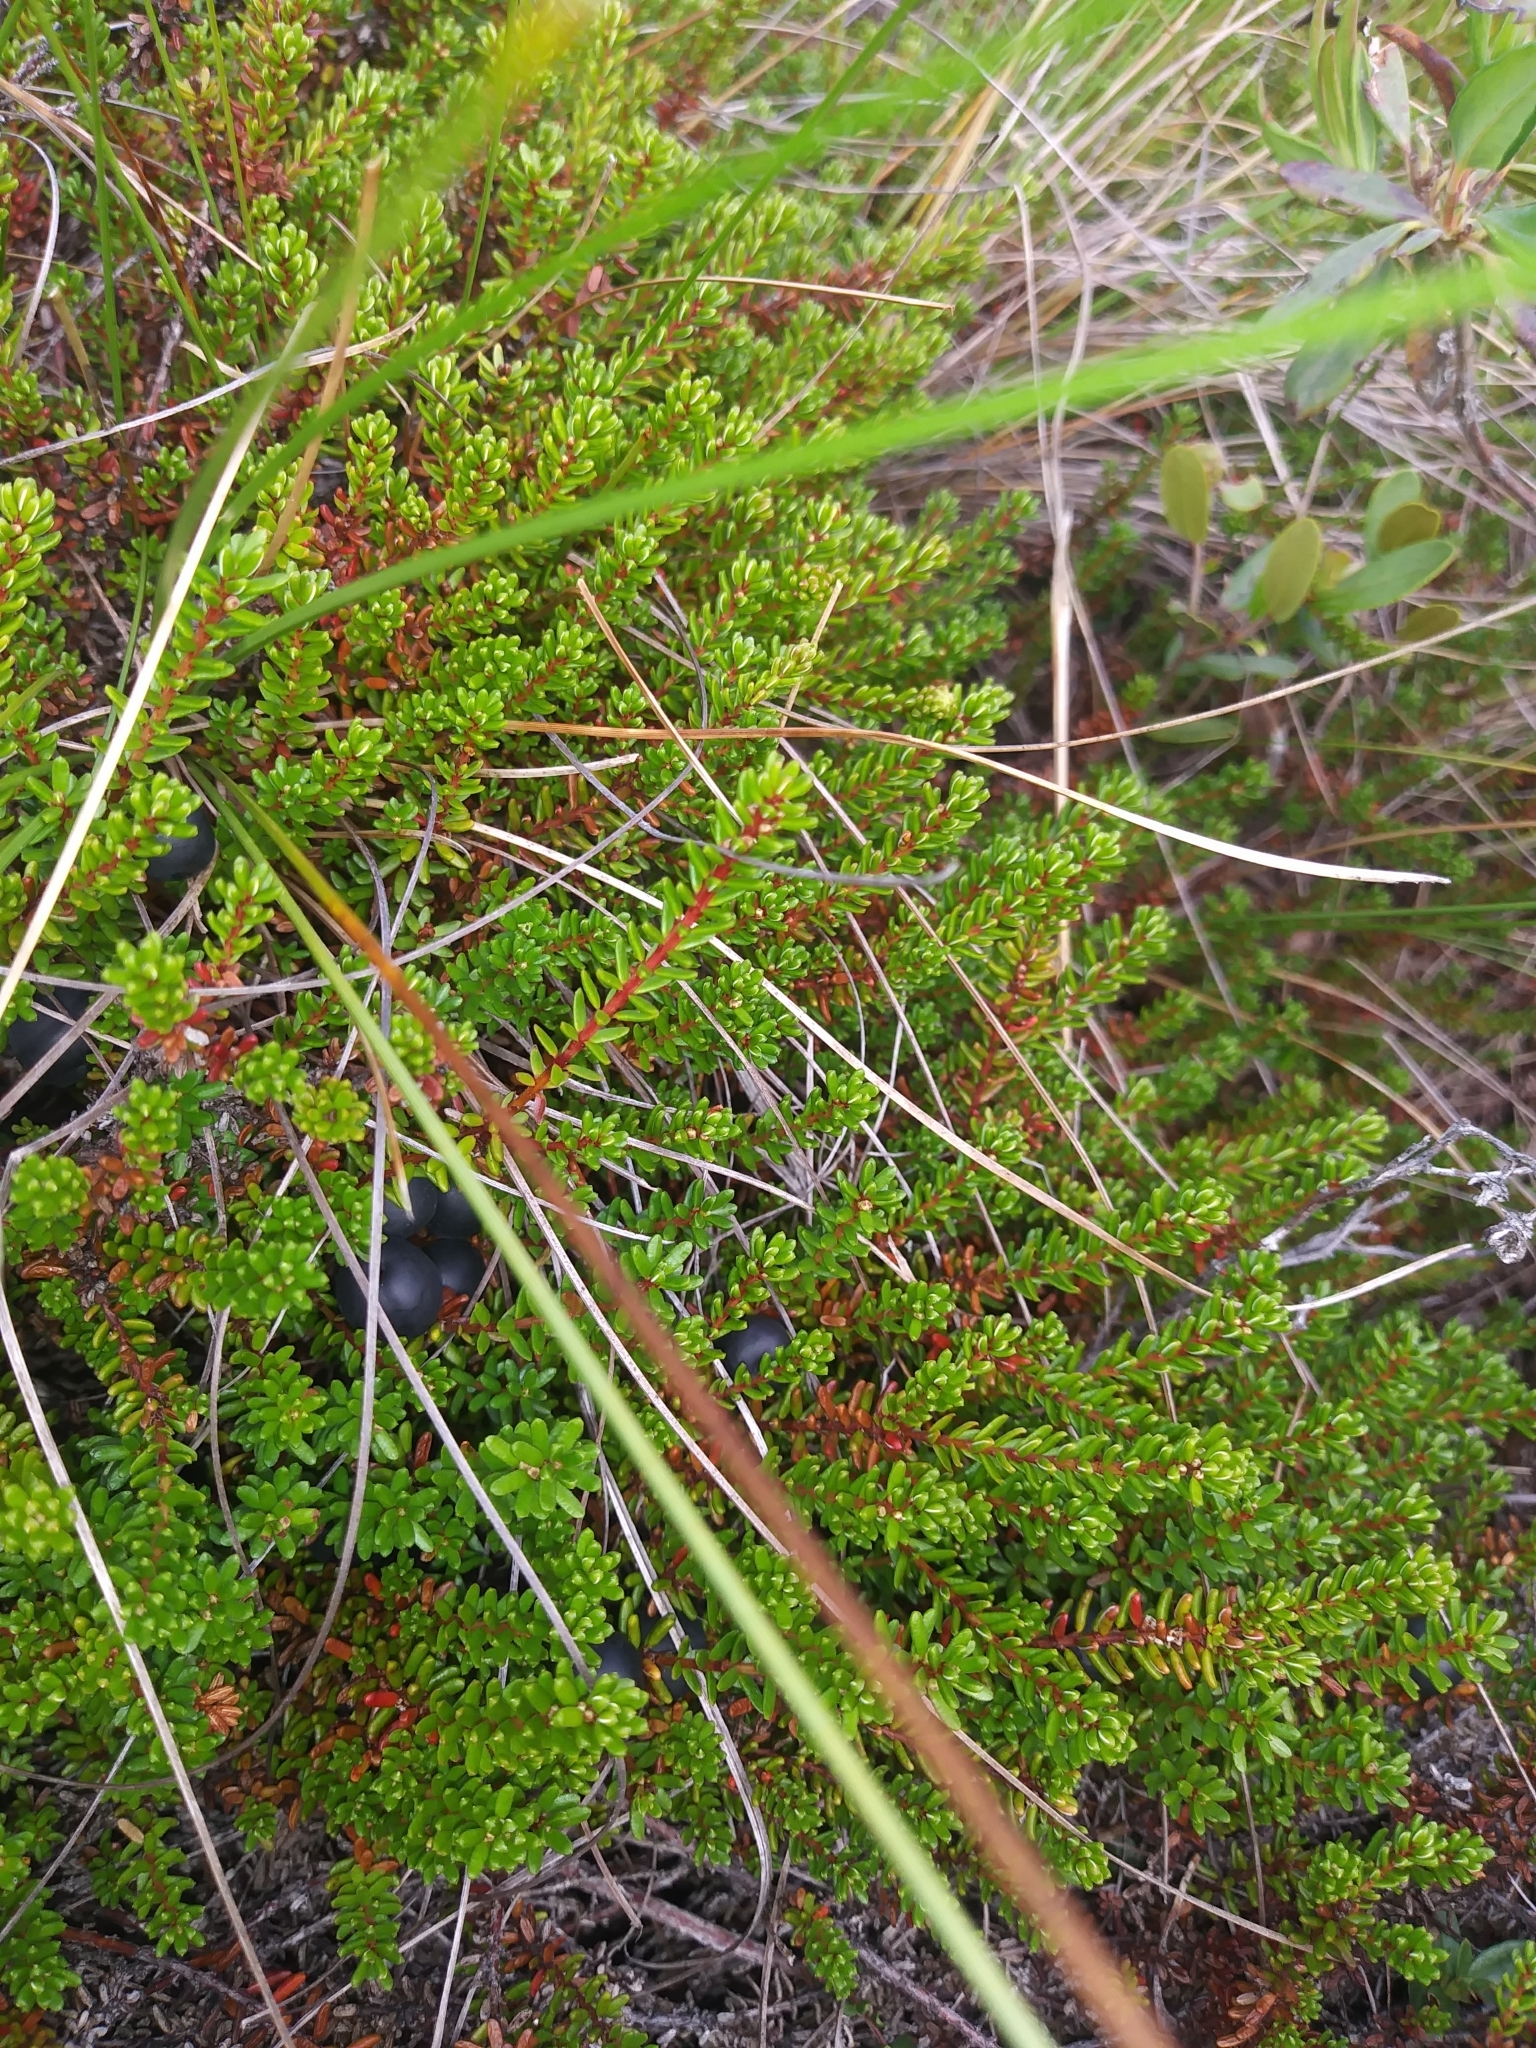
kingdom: Plantae
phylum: Tracheophyta
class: Magnoliopsida
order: Ericales
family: Ericaceae
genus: Empetrum
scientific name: Empetrum nigrum
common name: Black crowberry
